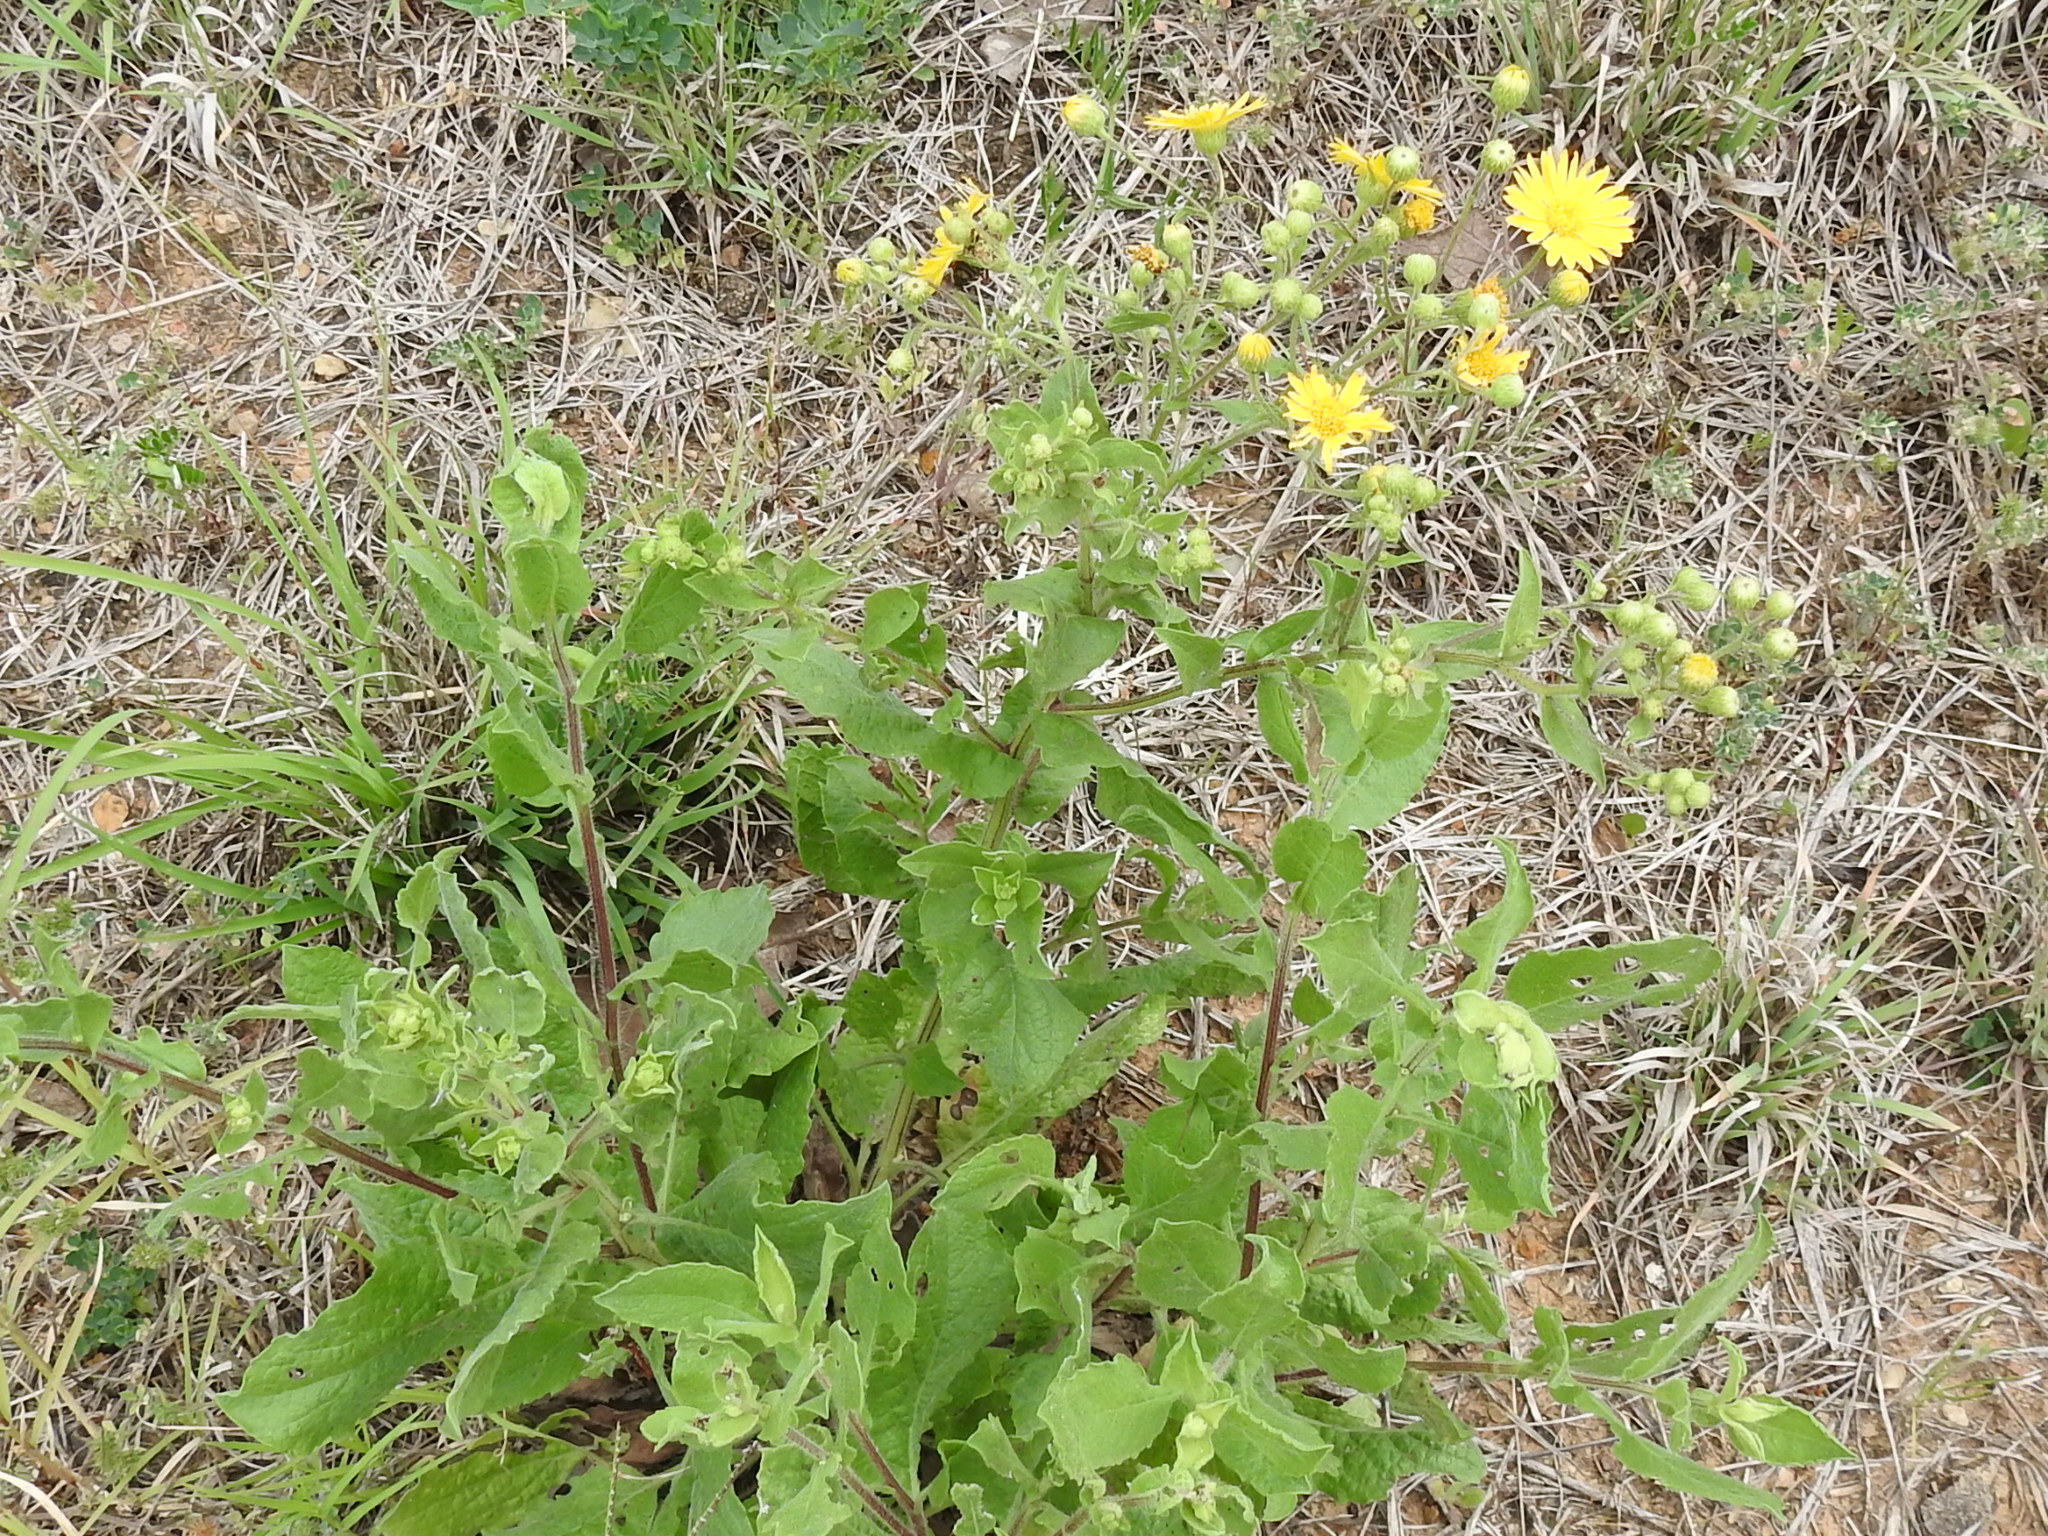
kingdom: Plantae
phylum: Tracheophyta
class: Magnoliopsida
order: Asterales
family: Asteraceae
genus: Heterotheca
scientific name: Heterotheca subaxillaris
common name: Camphorweed
